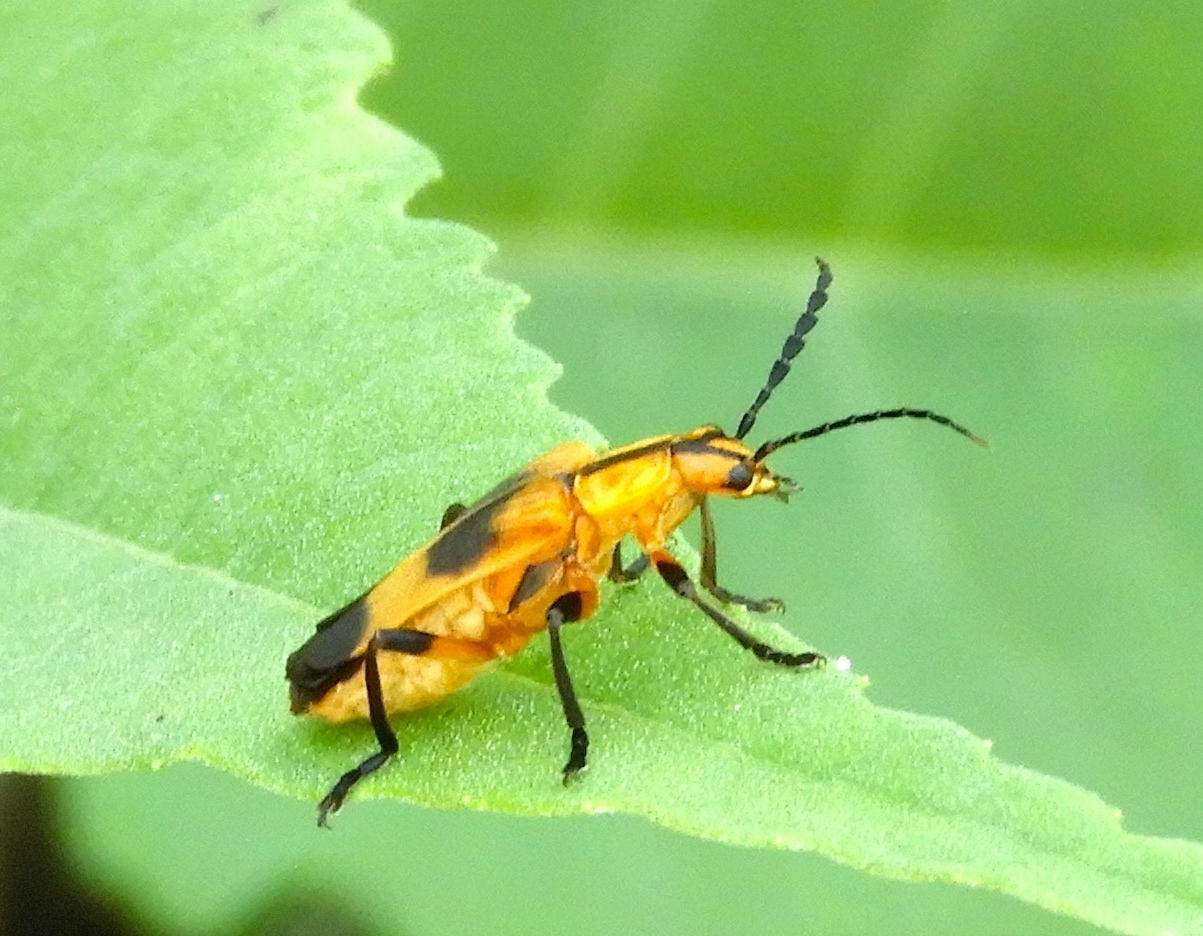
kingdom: Animalia
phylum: Arthropoda
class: Insecta
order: Coleoptera
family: Cantharidae
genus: Daiphron
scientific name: Daiphron proteum
